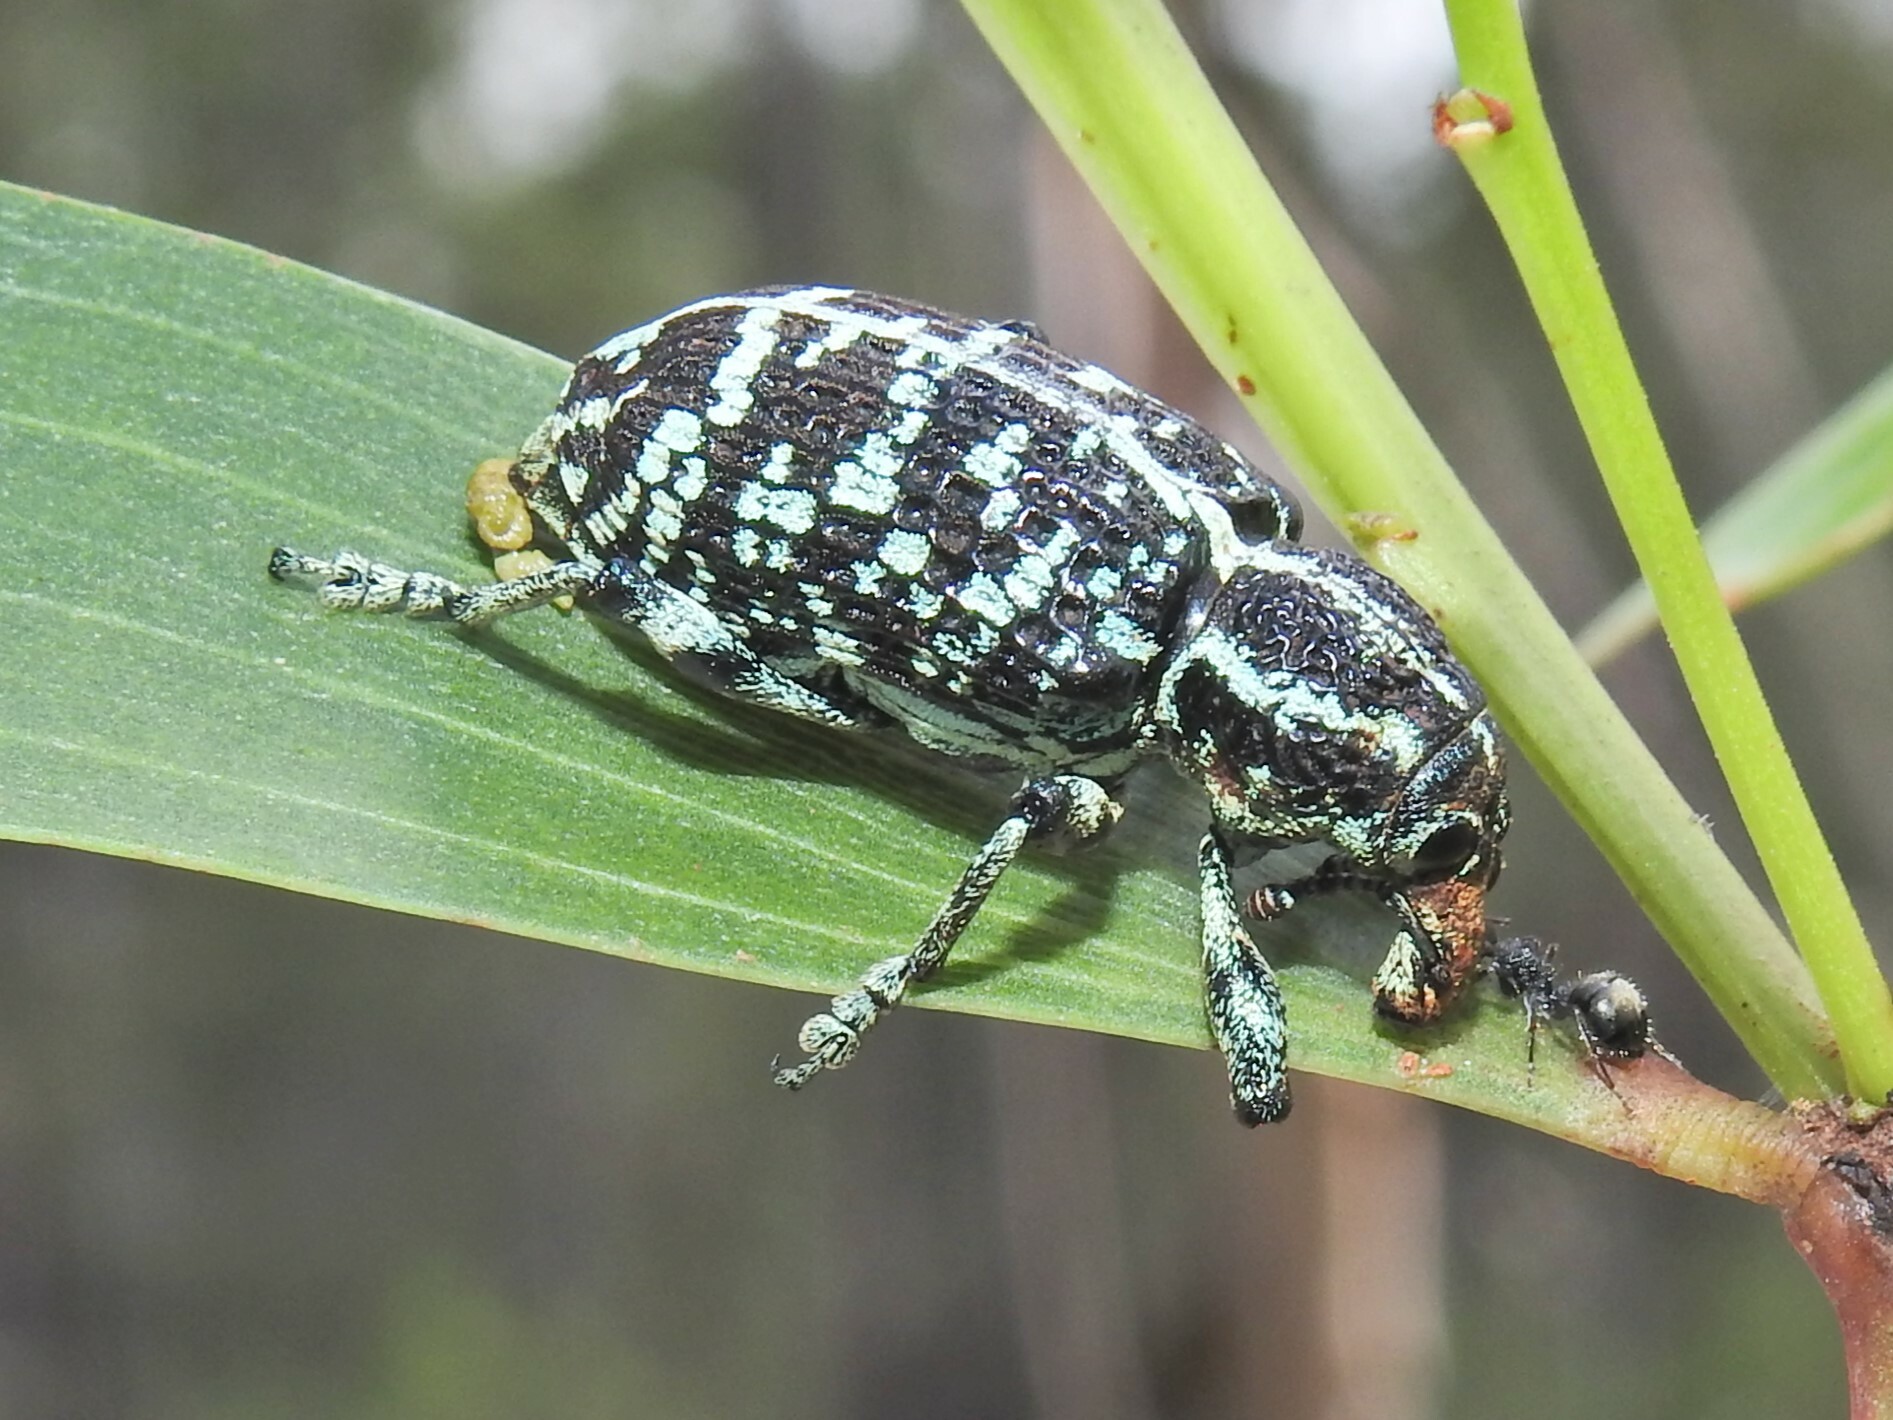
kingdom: Animalia
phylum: Arthropoda
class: Insecta
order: Coleoptera
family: Curculionidae
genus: Chrysolopus
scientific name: Chrysolopus spectabilis
